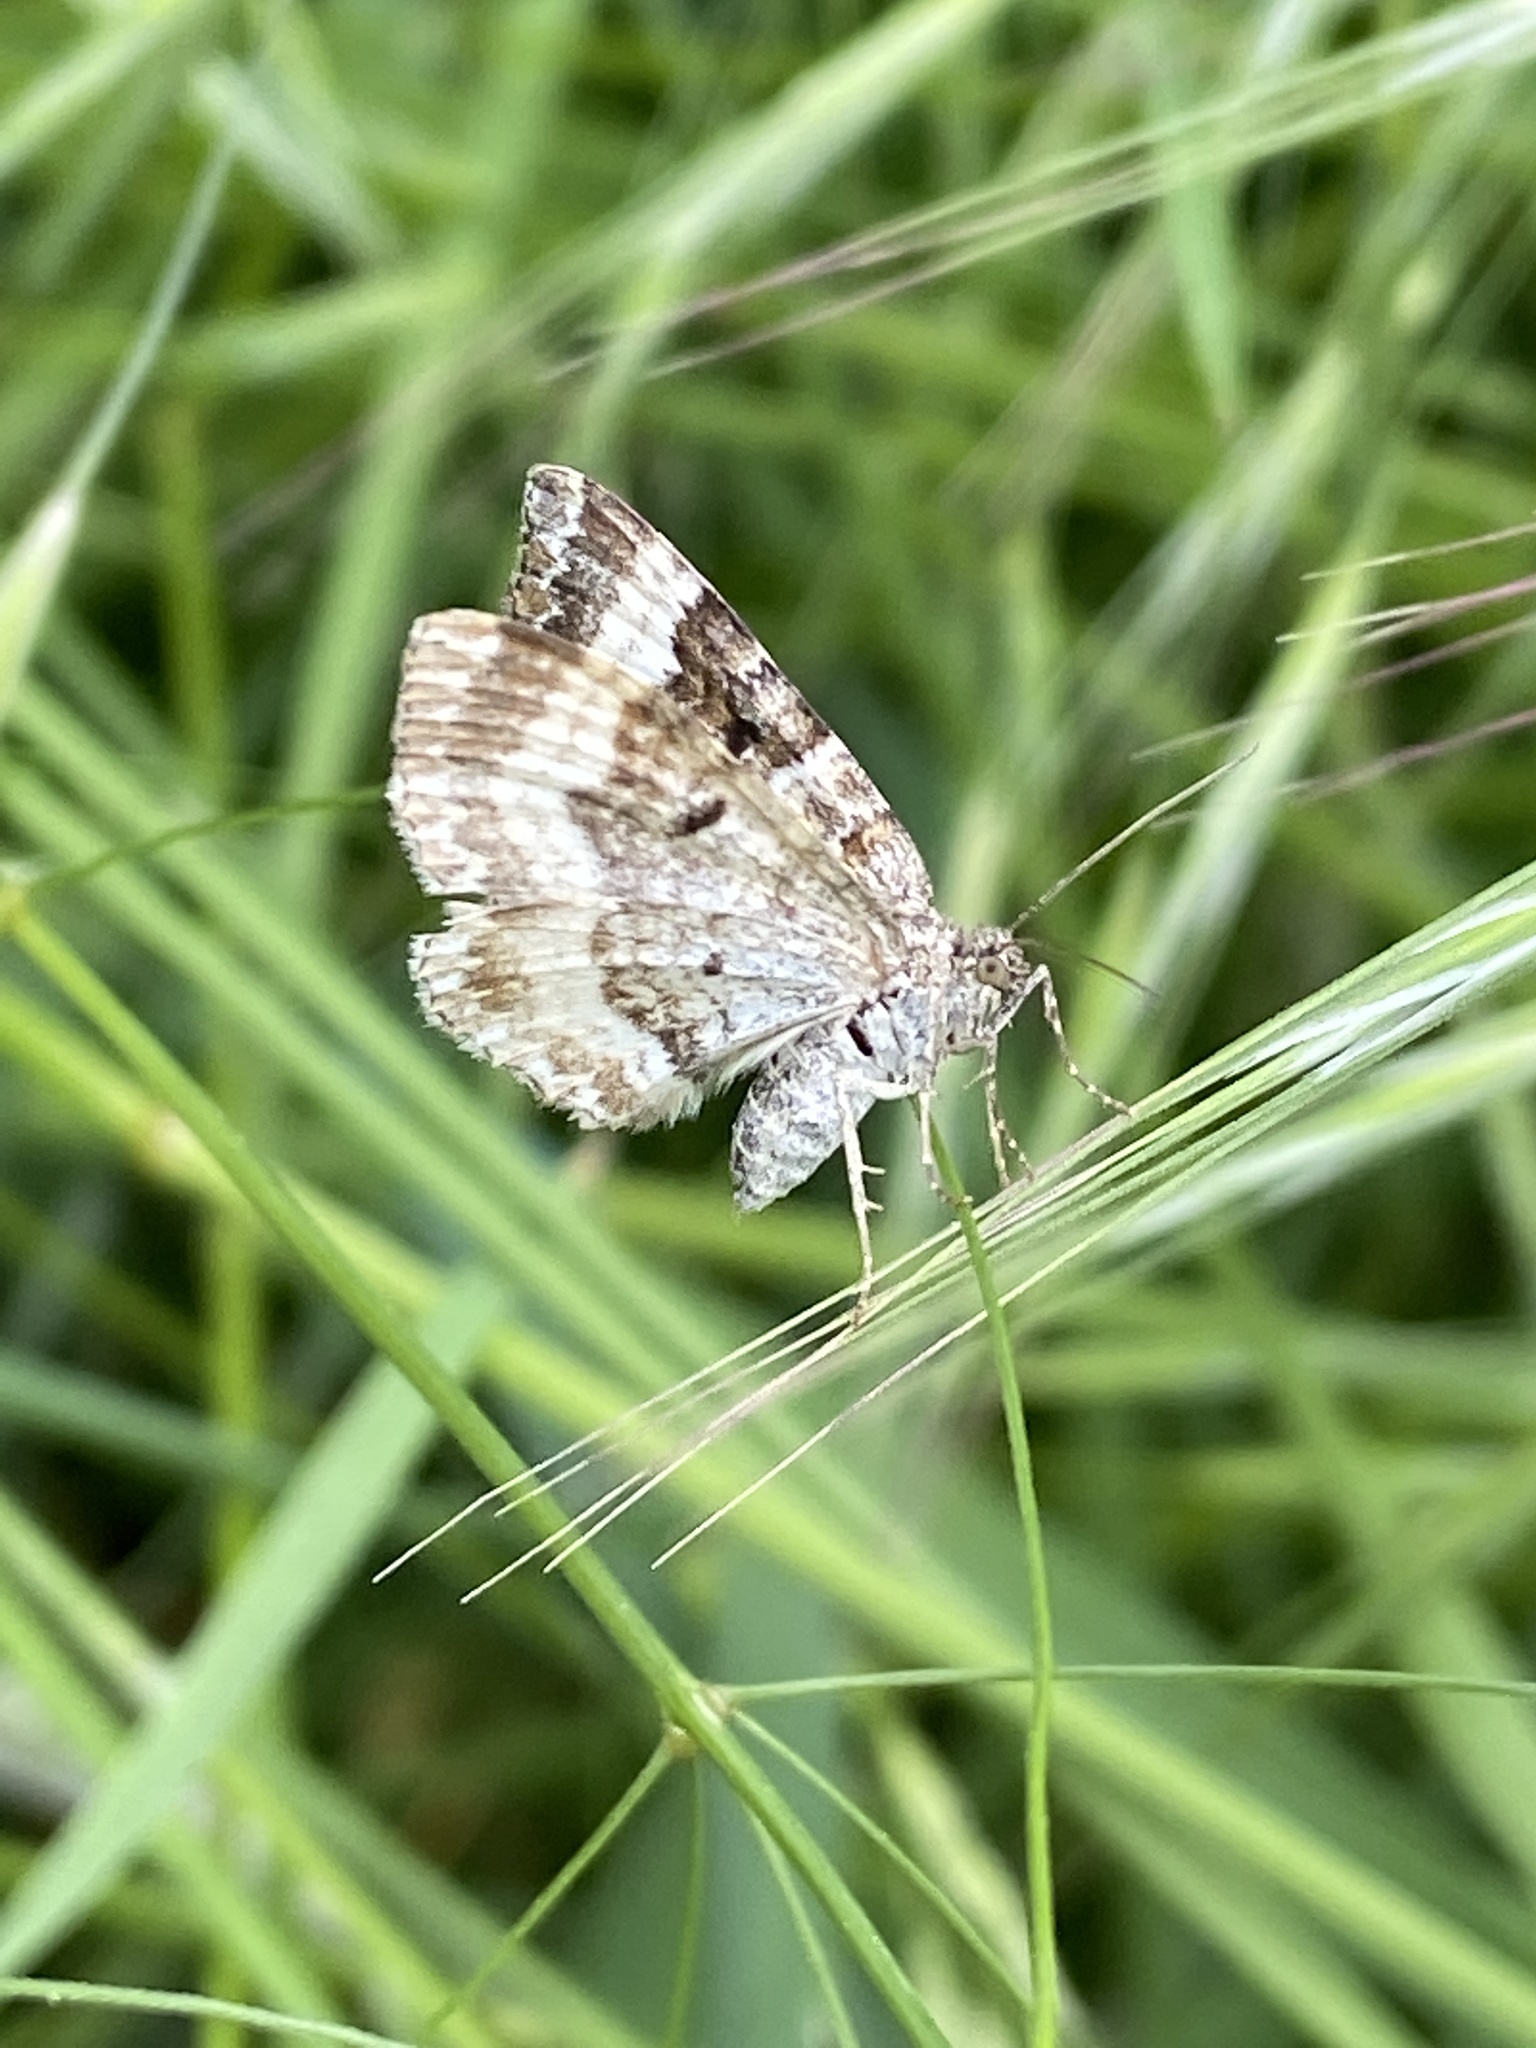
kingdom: Animalia
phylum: Arthropoda
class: Insecta
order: Lepidoptera
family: Geometridae
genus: Epirrhoe
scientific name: Epirrhoe alternata
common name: Common carpet
